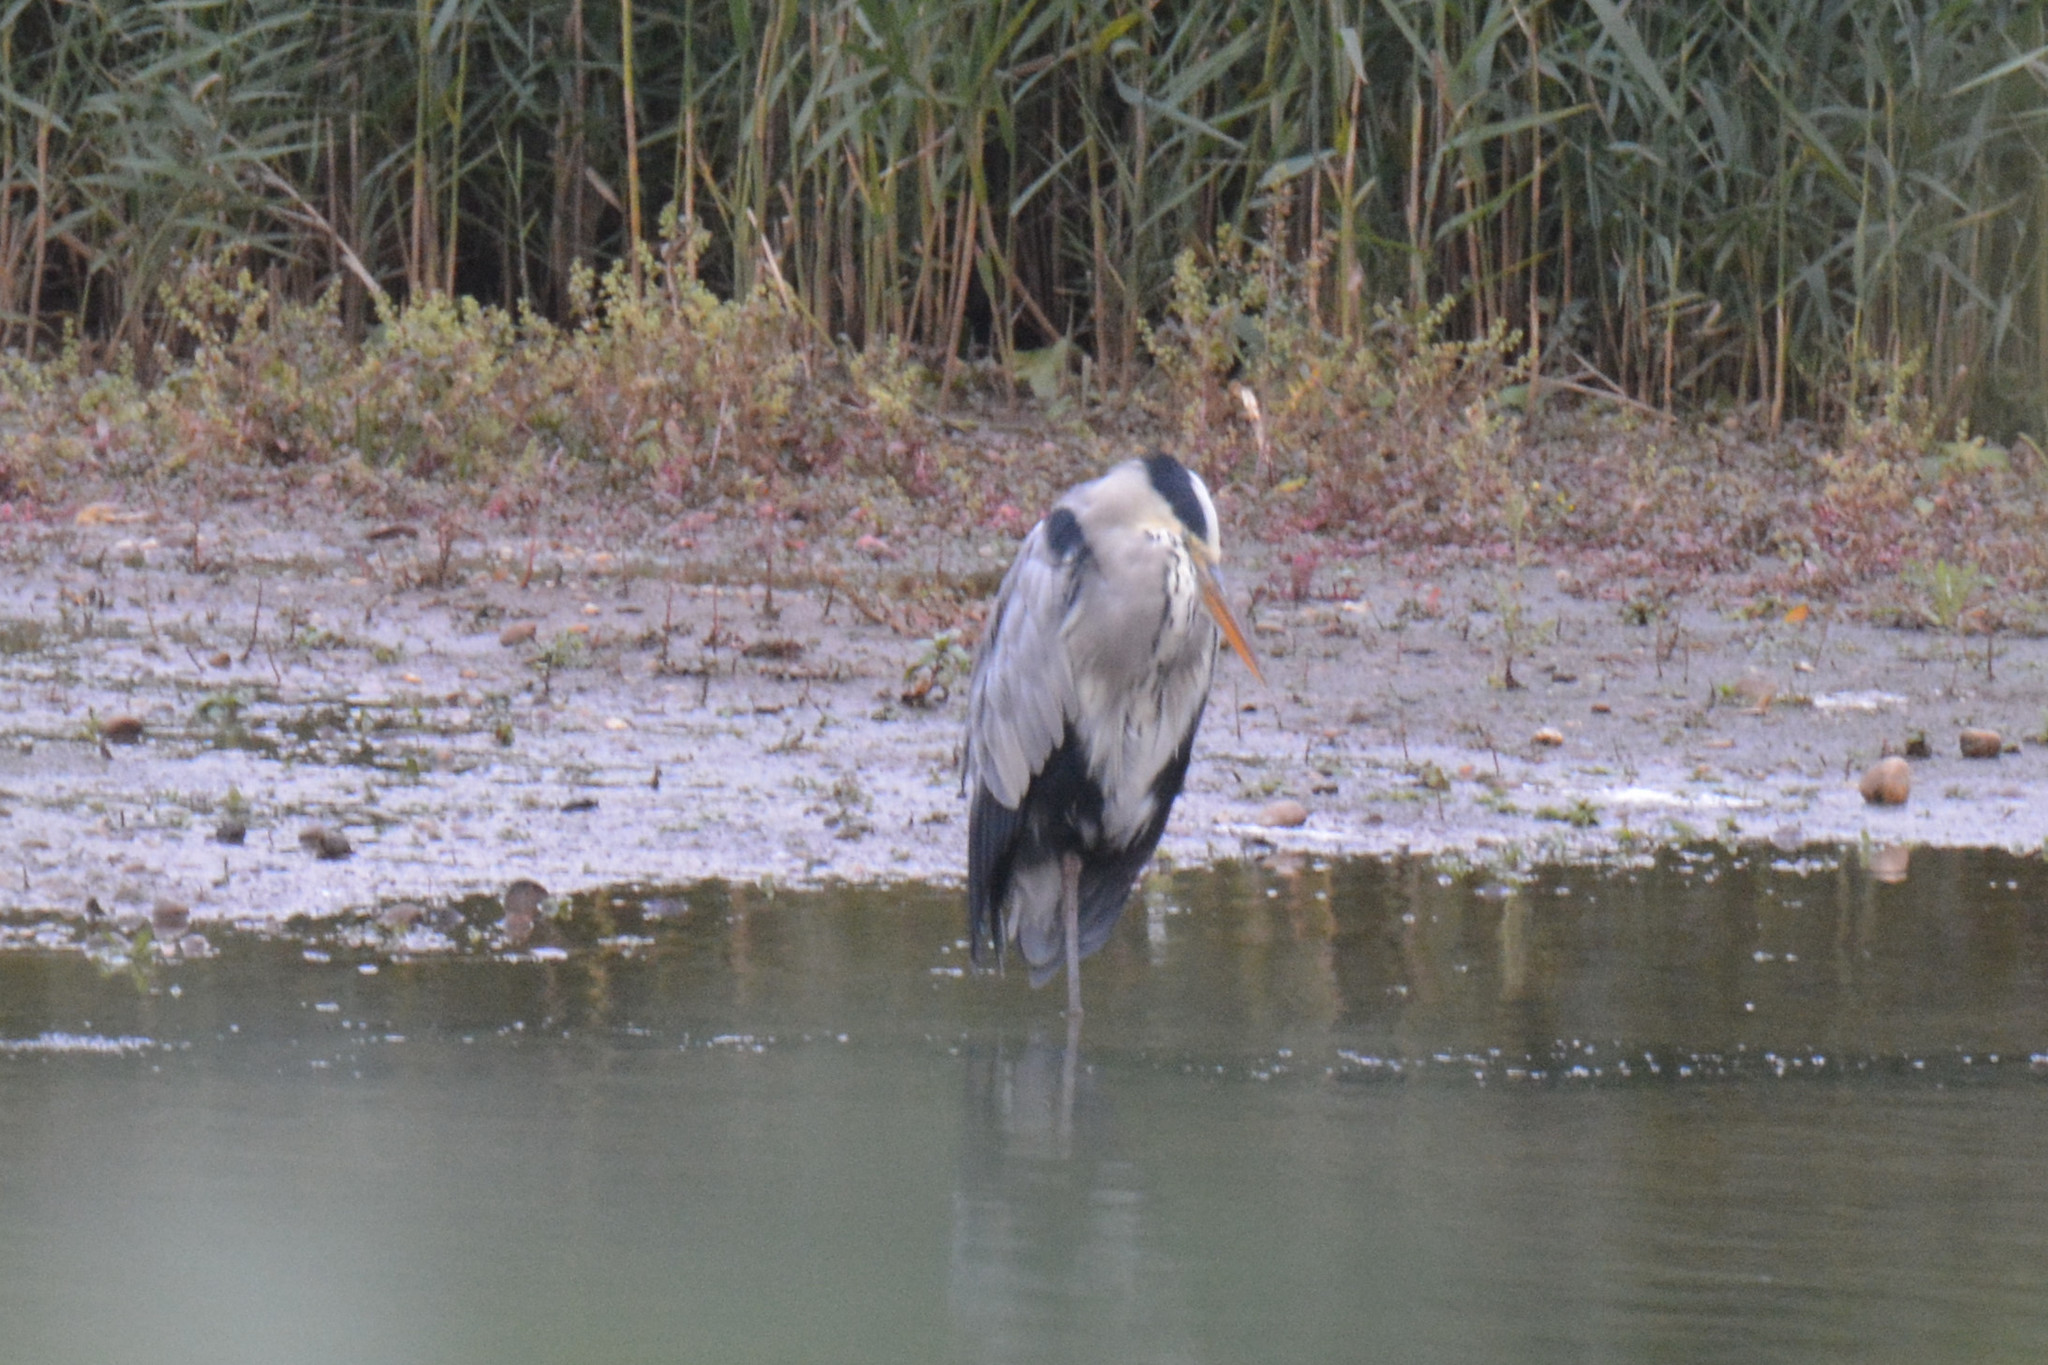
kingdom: Animalia
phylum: Chordata
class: Aves
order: Pelecaniformes
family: Ardeidae
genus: Ardea
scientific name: Ardea cinerea
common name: Grey heron
